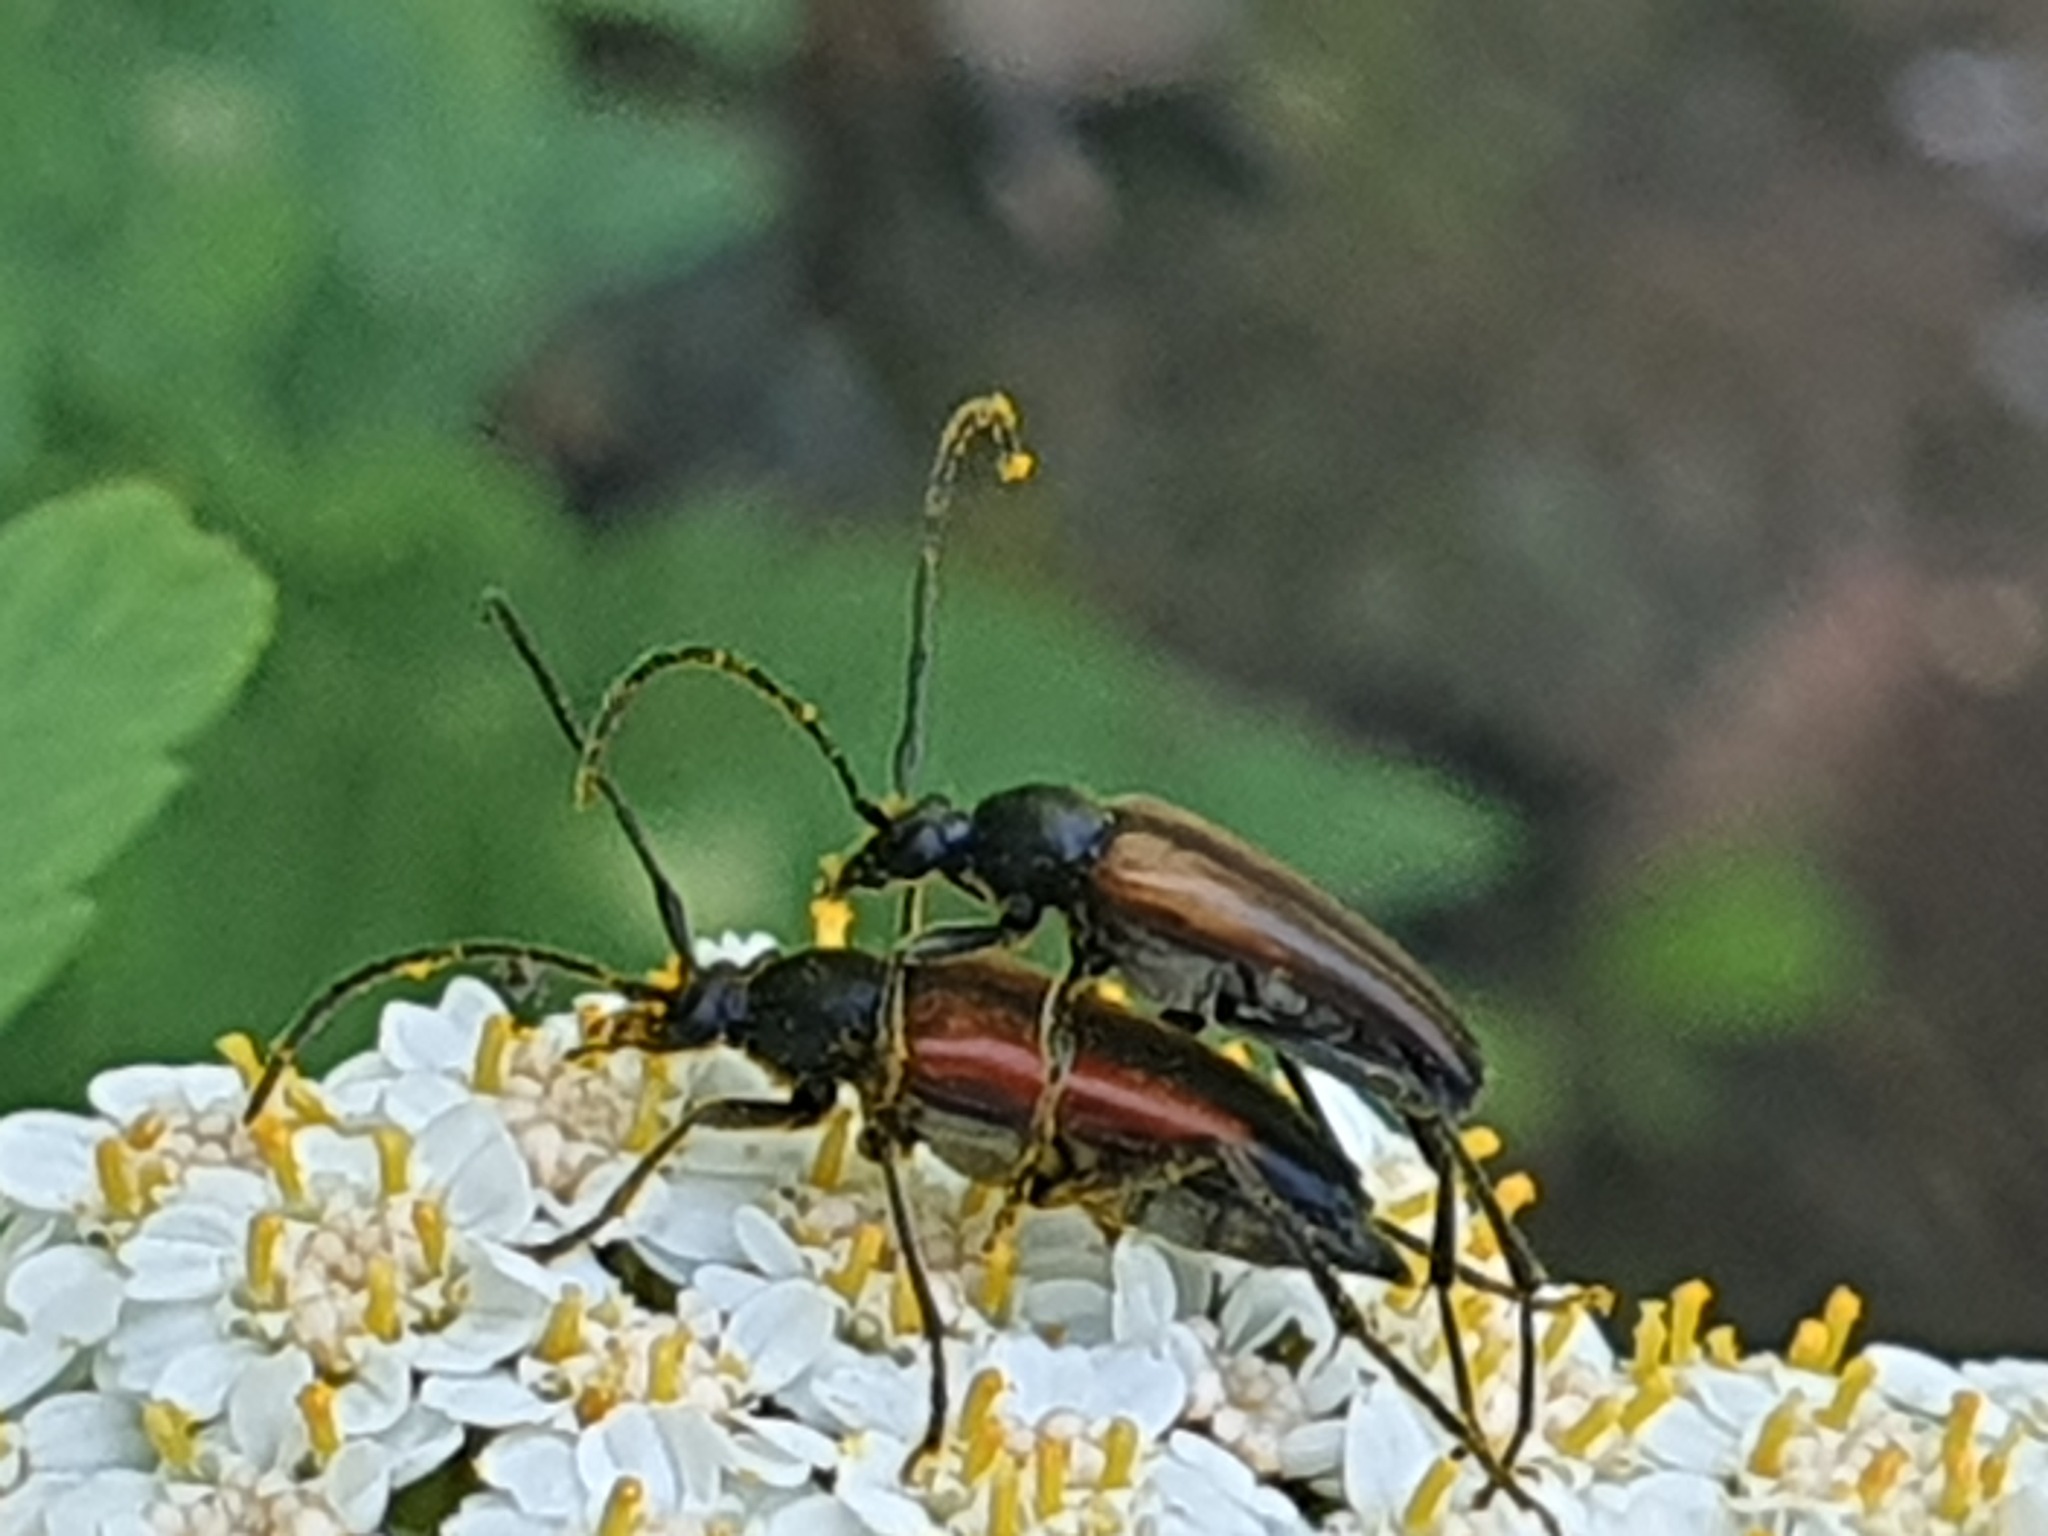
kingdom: Animalia
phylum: Arthropoda
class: Insecta
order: Coleoptera
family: Cerambycidae
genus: Stenurella
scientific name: Stenurella melanura
